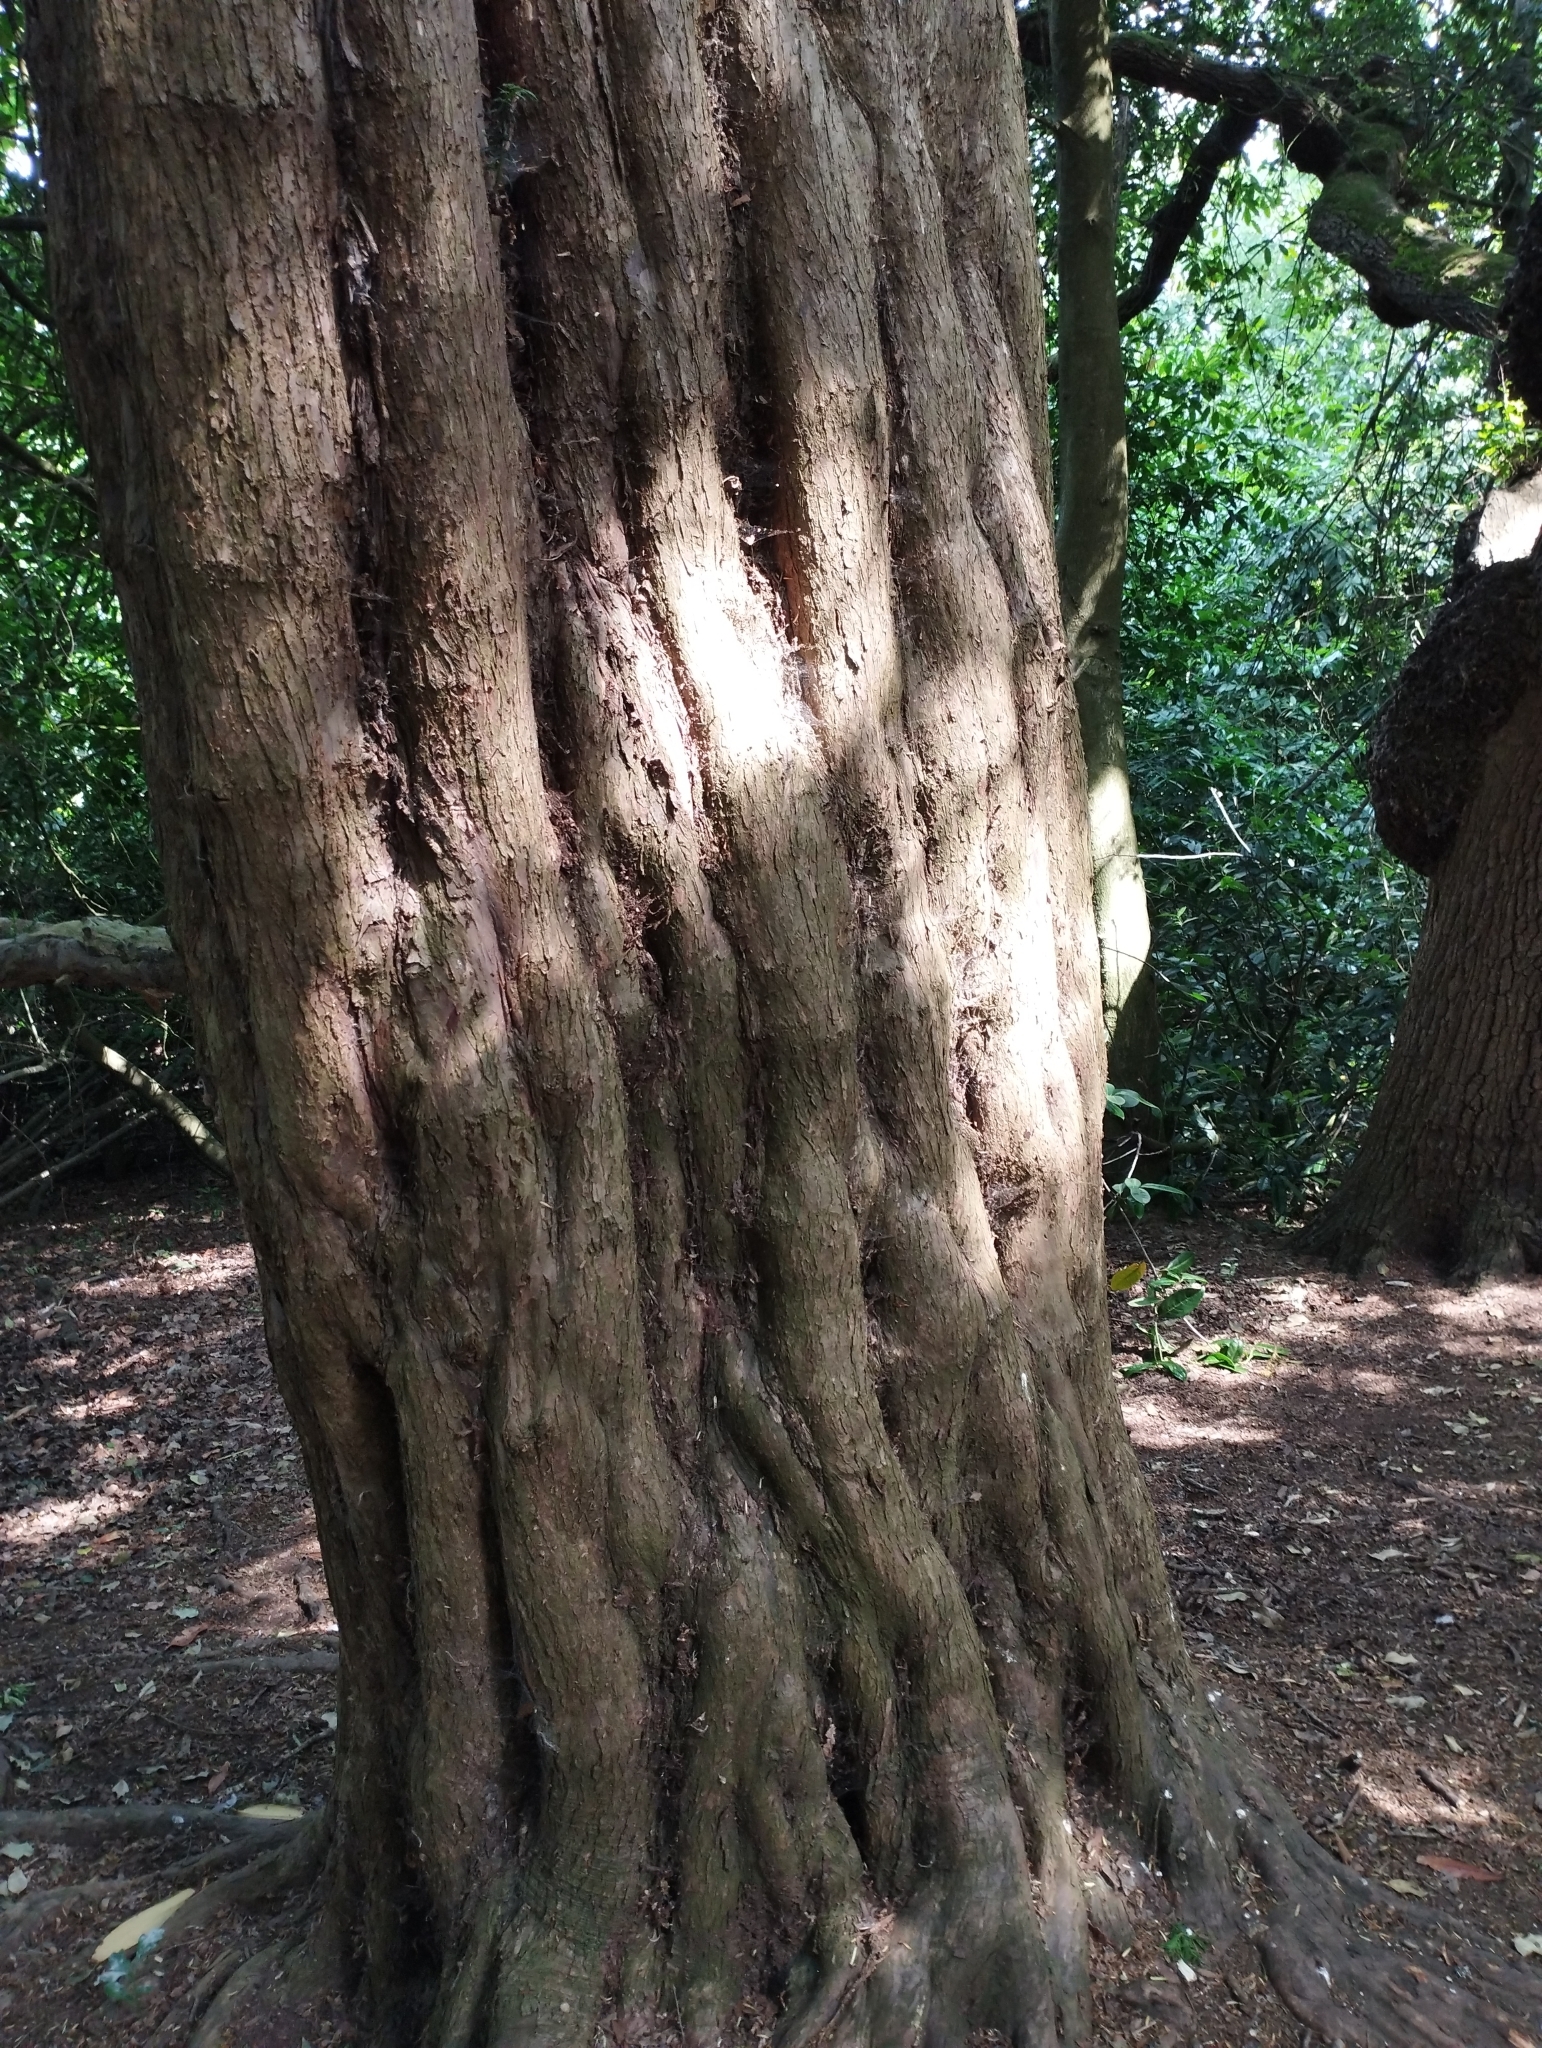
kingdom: Plantae
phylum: Tracheophyta
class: Pinopsida
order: Pinales
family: Taxaceae
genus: Taxus
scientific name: Taxus baccata
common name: Yew
